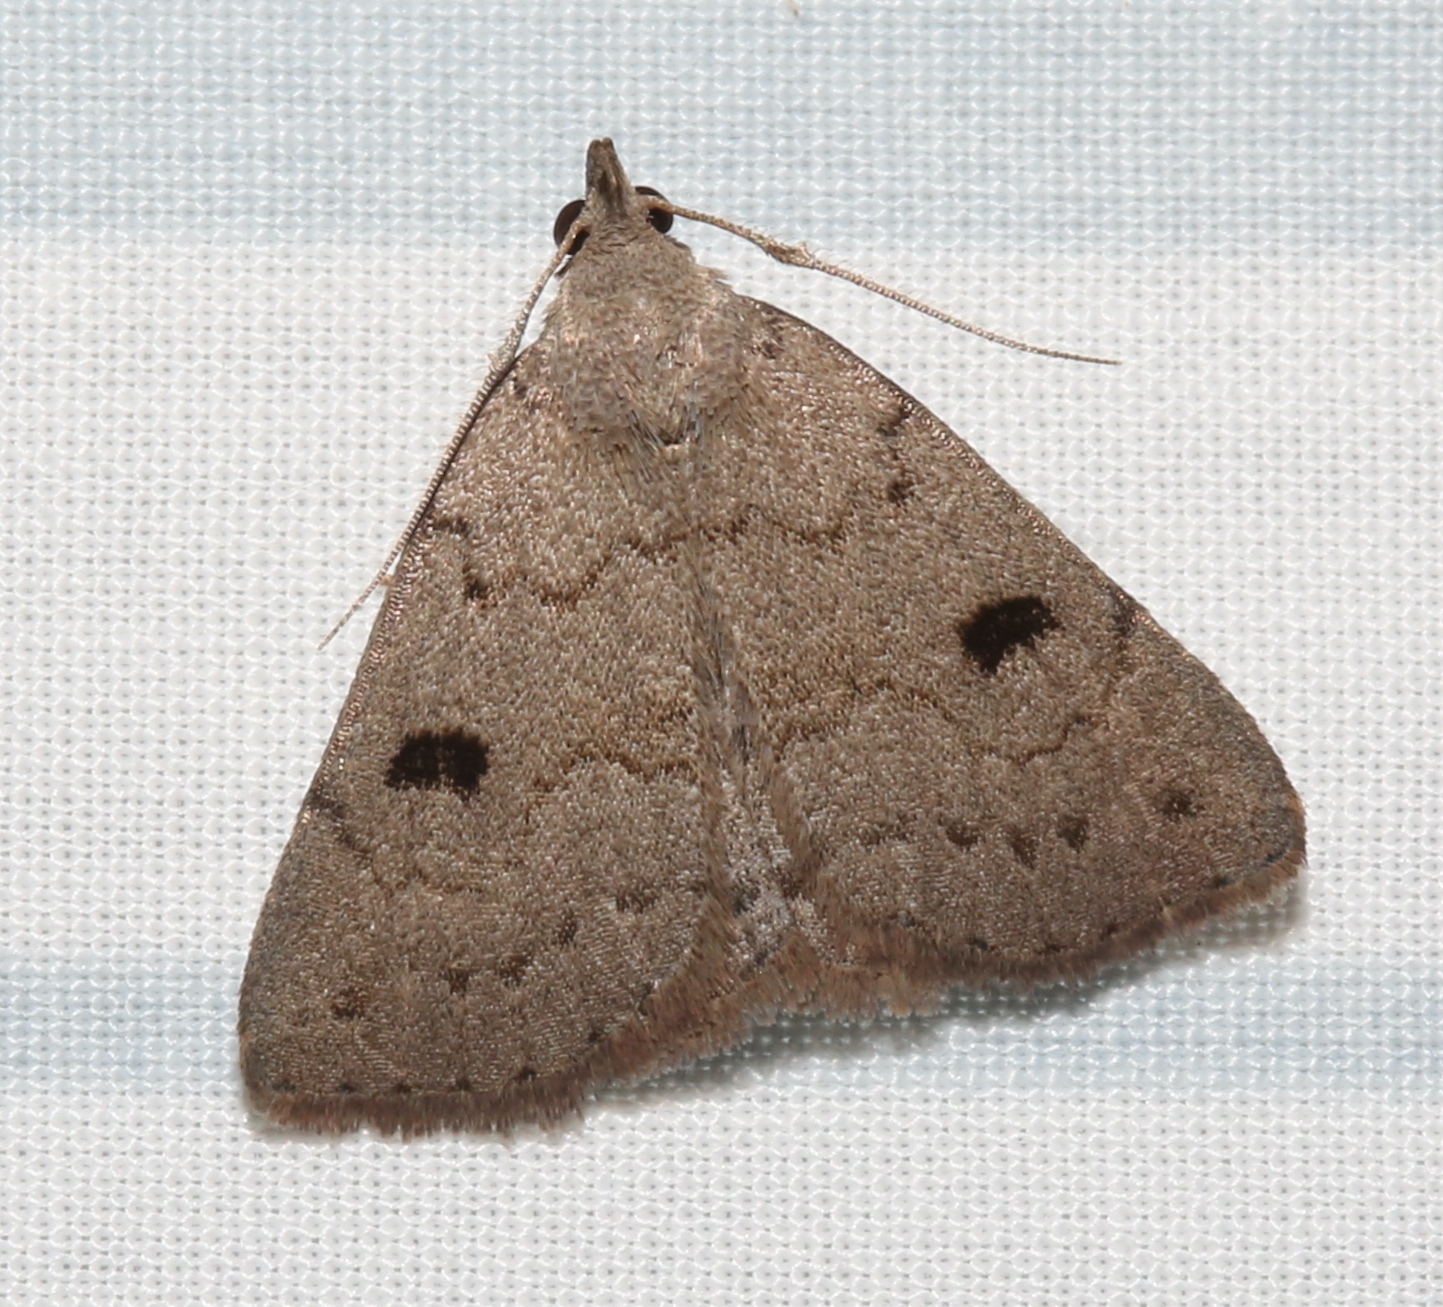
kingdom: Animalia
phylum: Arthropoda
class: Insecta
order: Lepidoptera
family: Erebidae
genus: Macrochilo
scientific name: Macrochilo morbidalis
